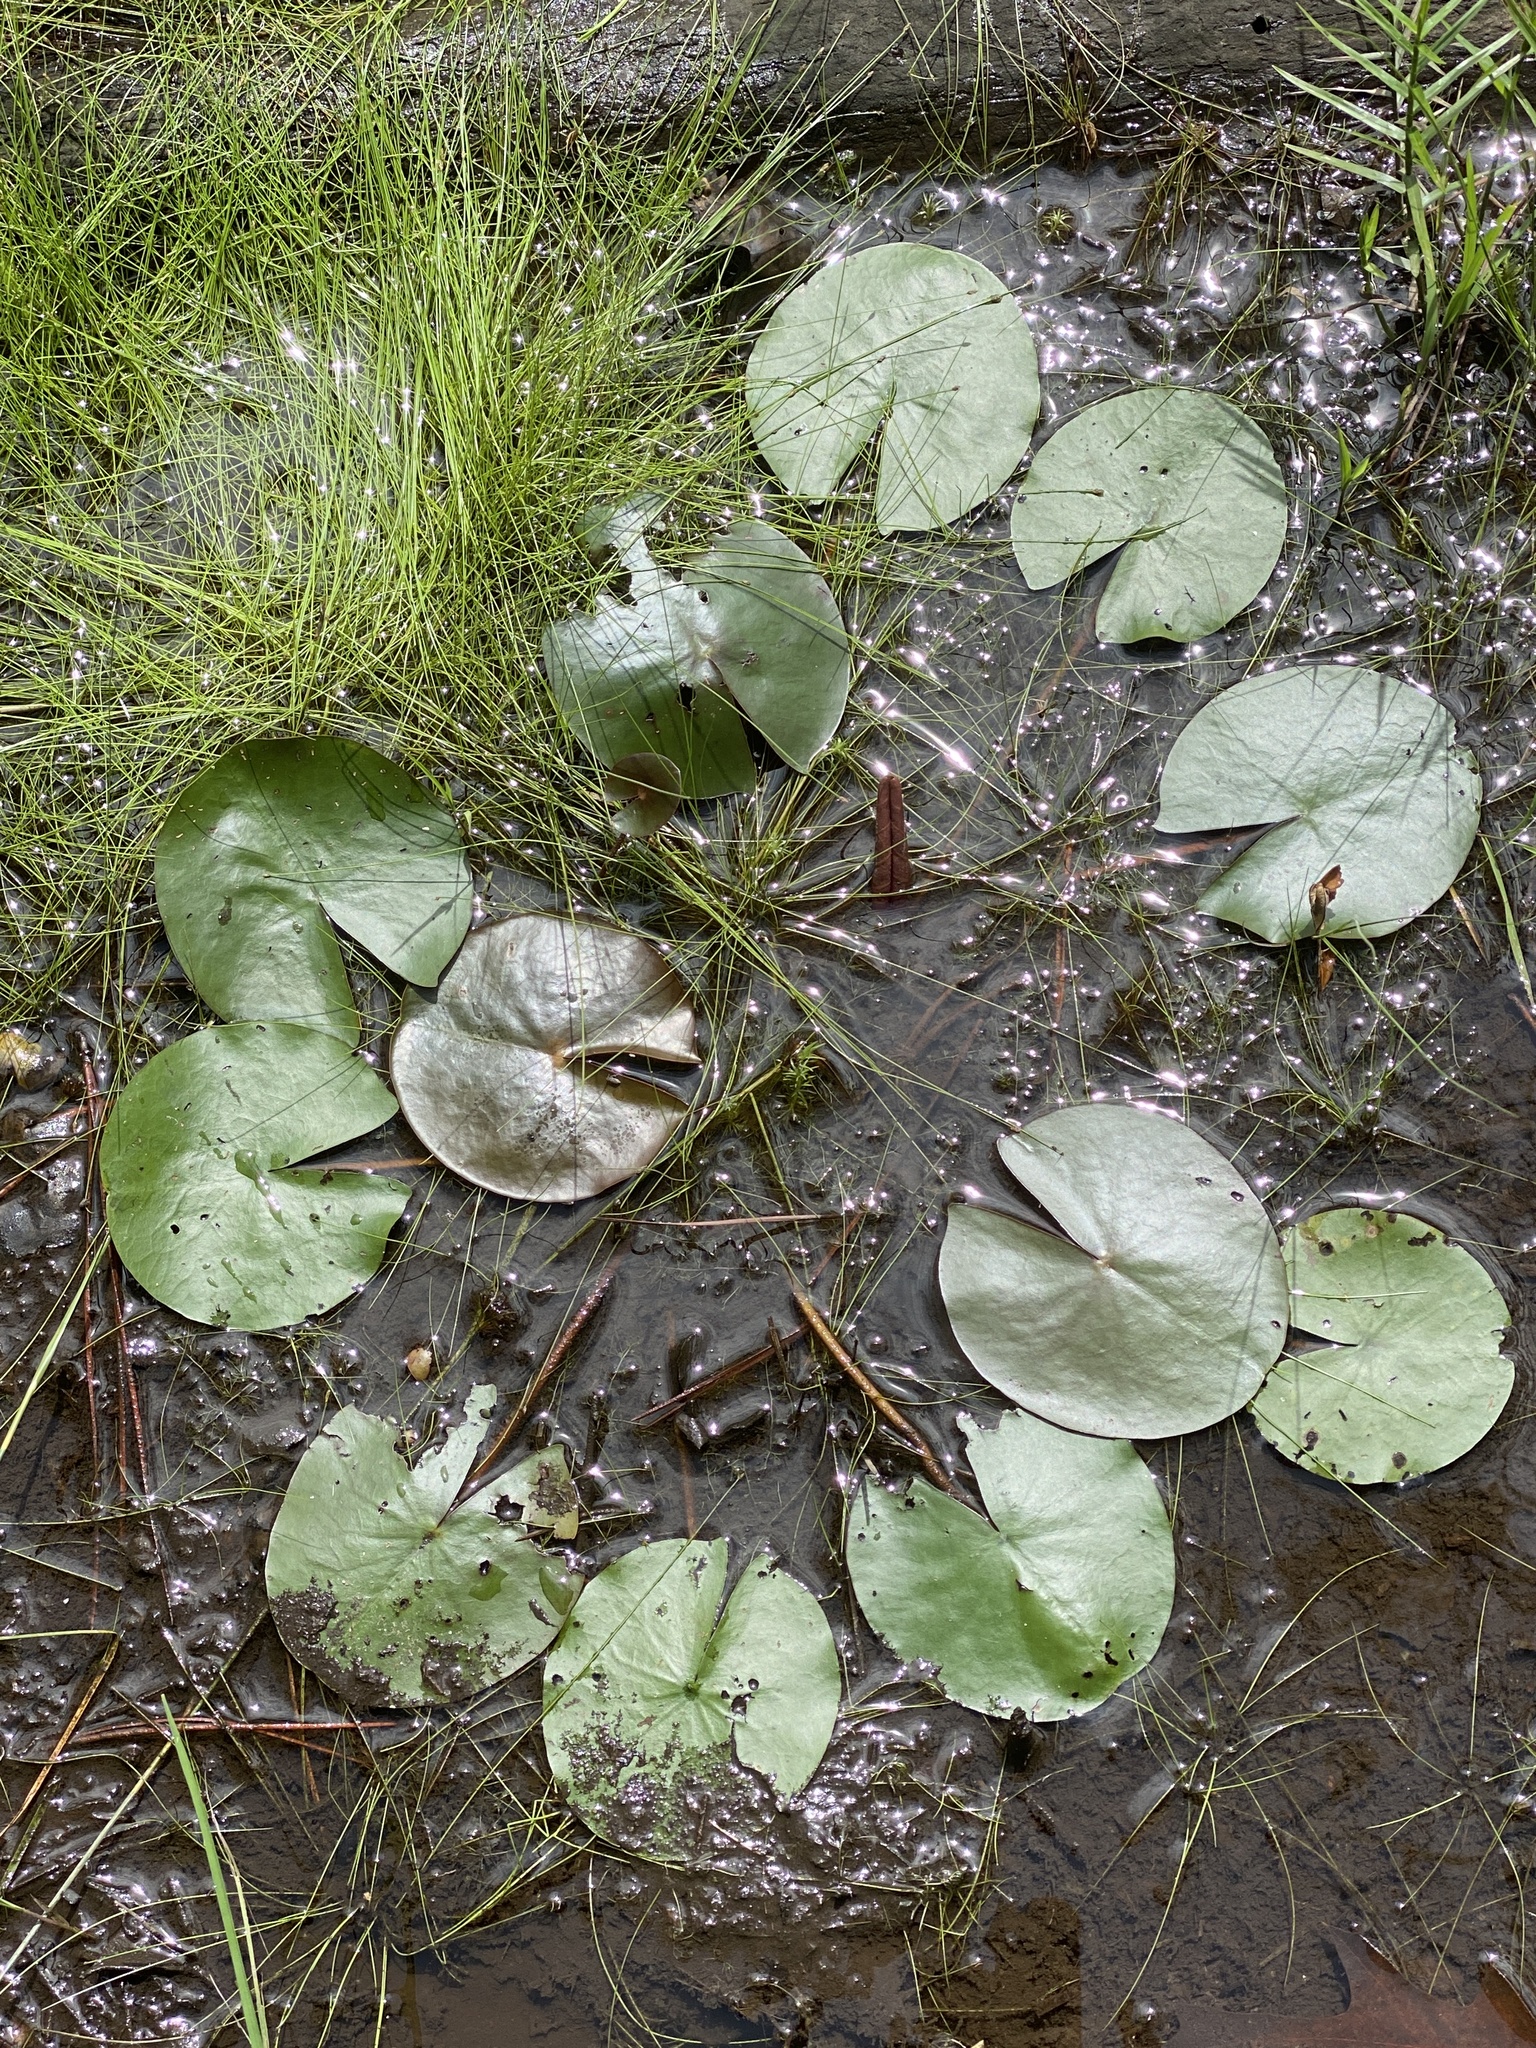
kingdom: Plantae
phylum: Tracheophyta
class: Magnoliopsida
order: Nymphaeales
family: Nymphaeaceae
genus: Nymphaea
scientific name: Nymphaea odorata
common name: Fragrant water-lily
